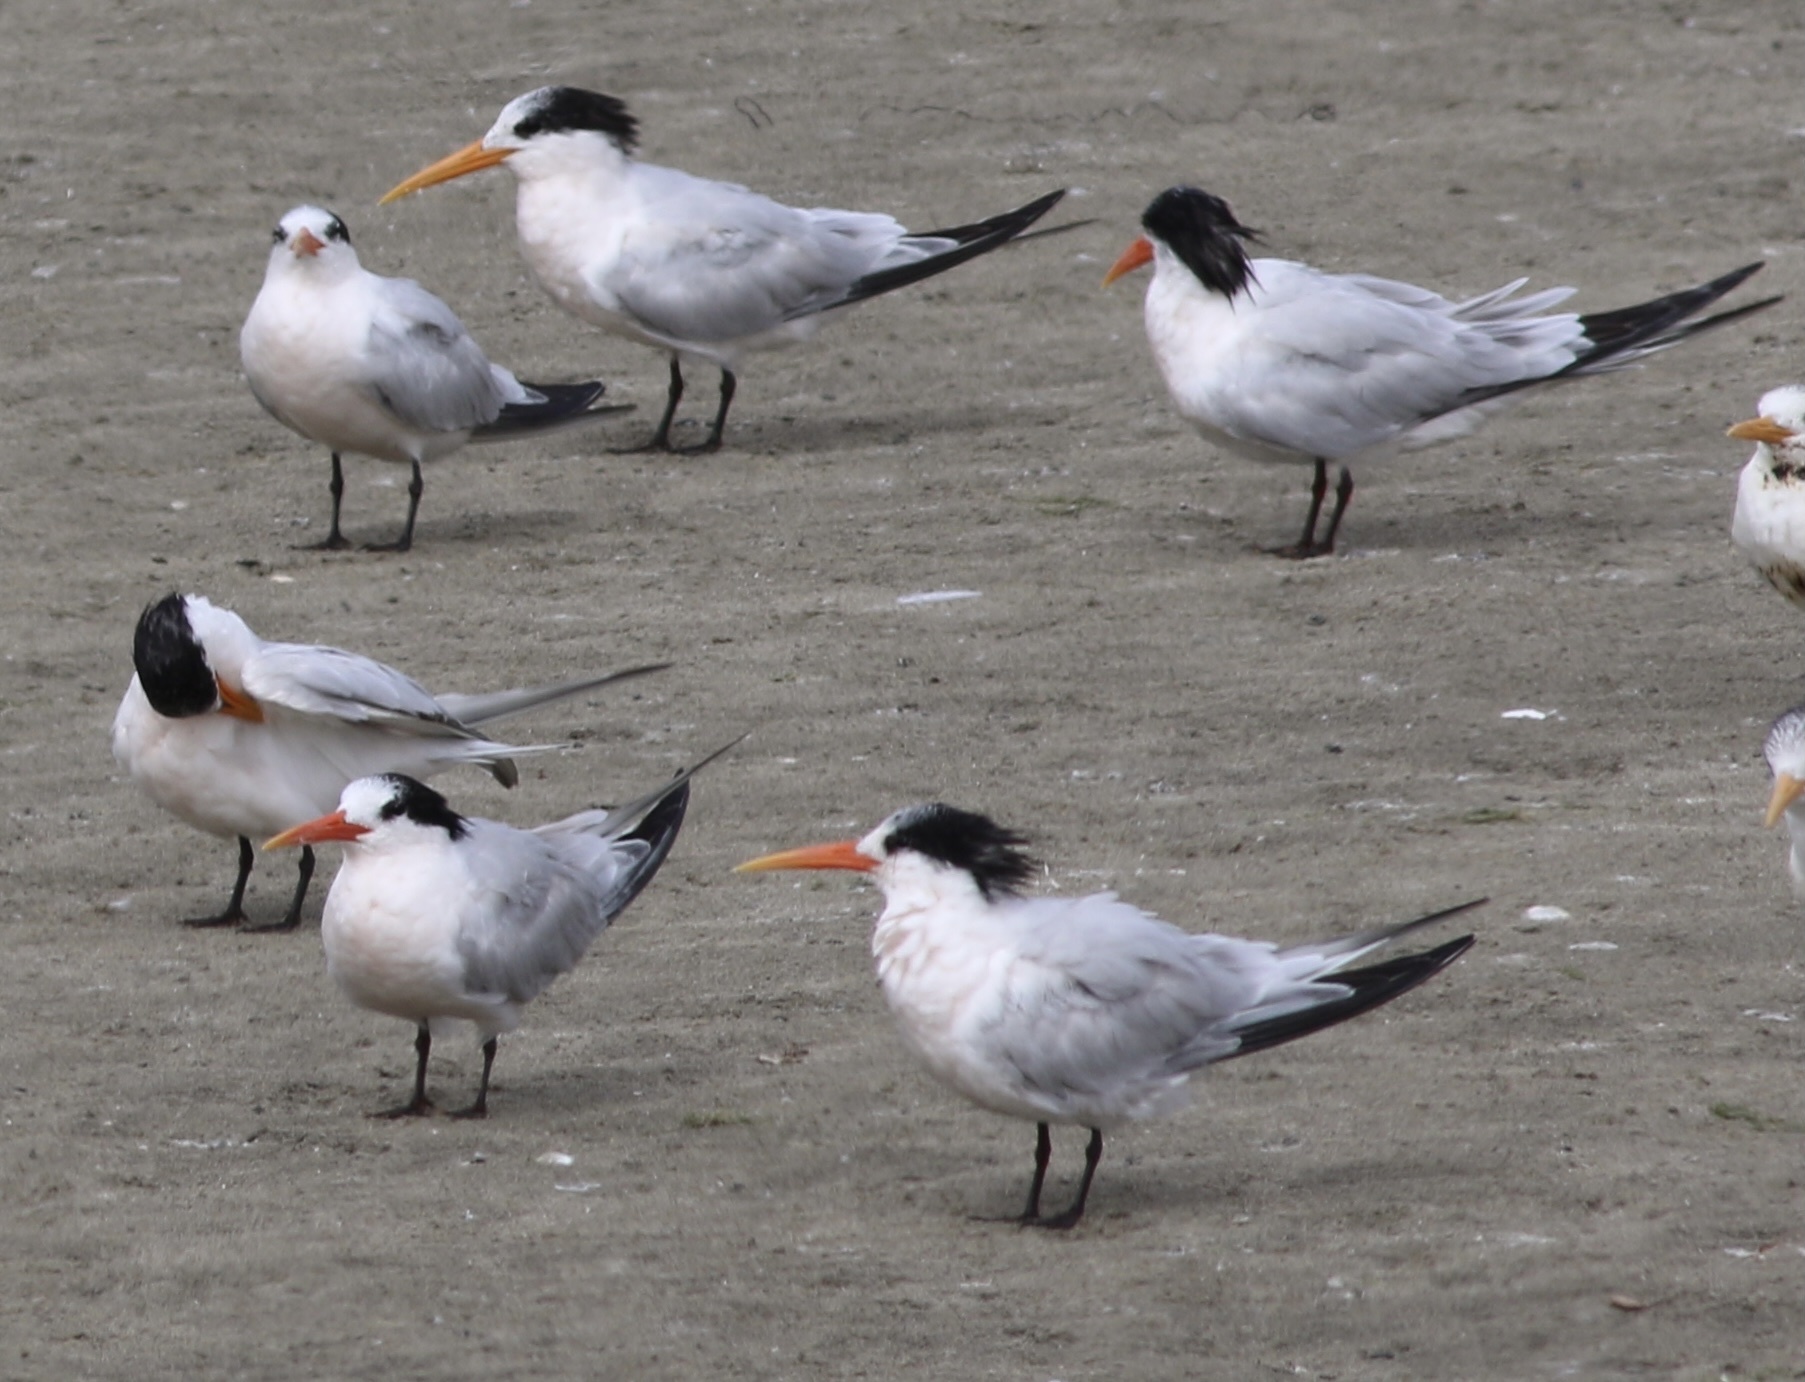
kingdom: Animalia
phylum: Chordata
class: Aves
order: Charadriiformes
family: Laridae
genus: Thalasseus
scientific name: Thalasseus elegans
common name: Elegant tern
